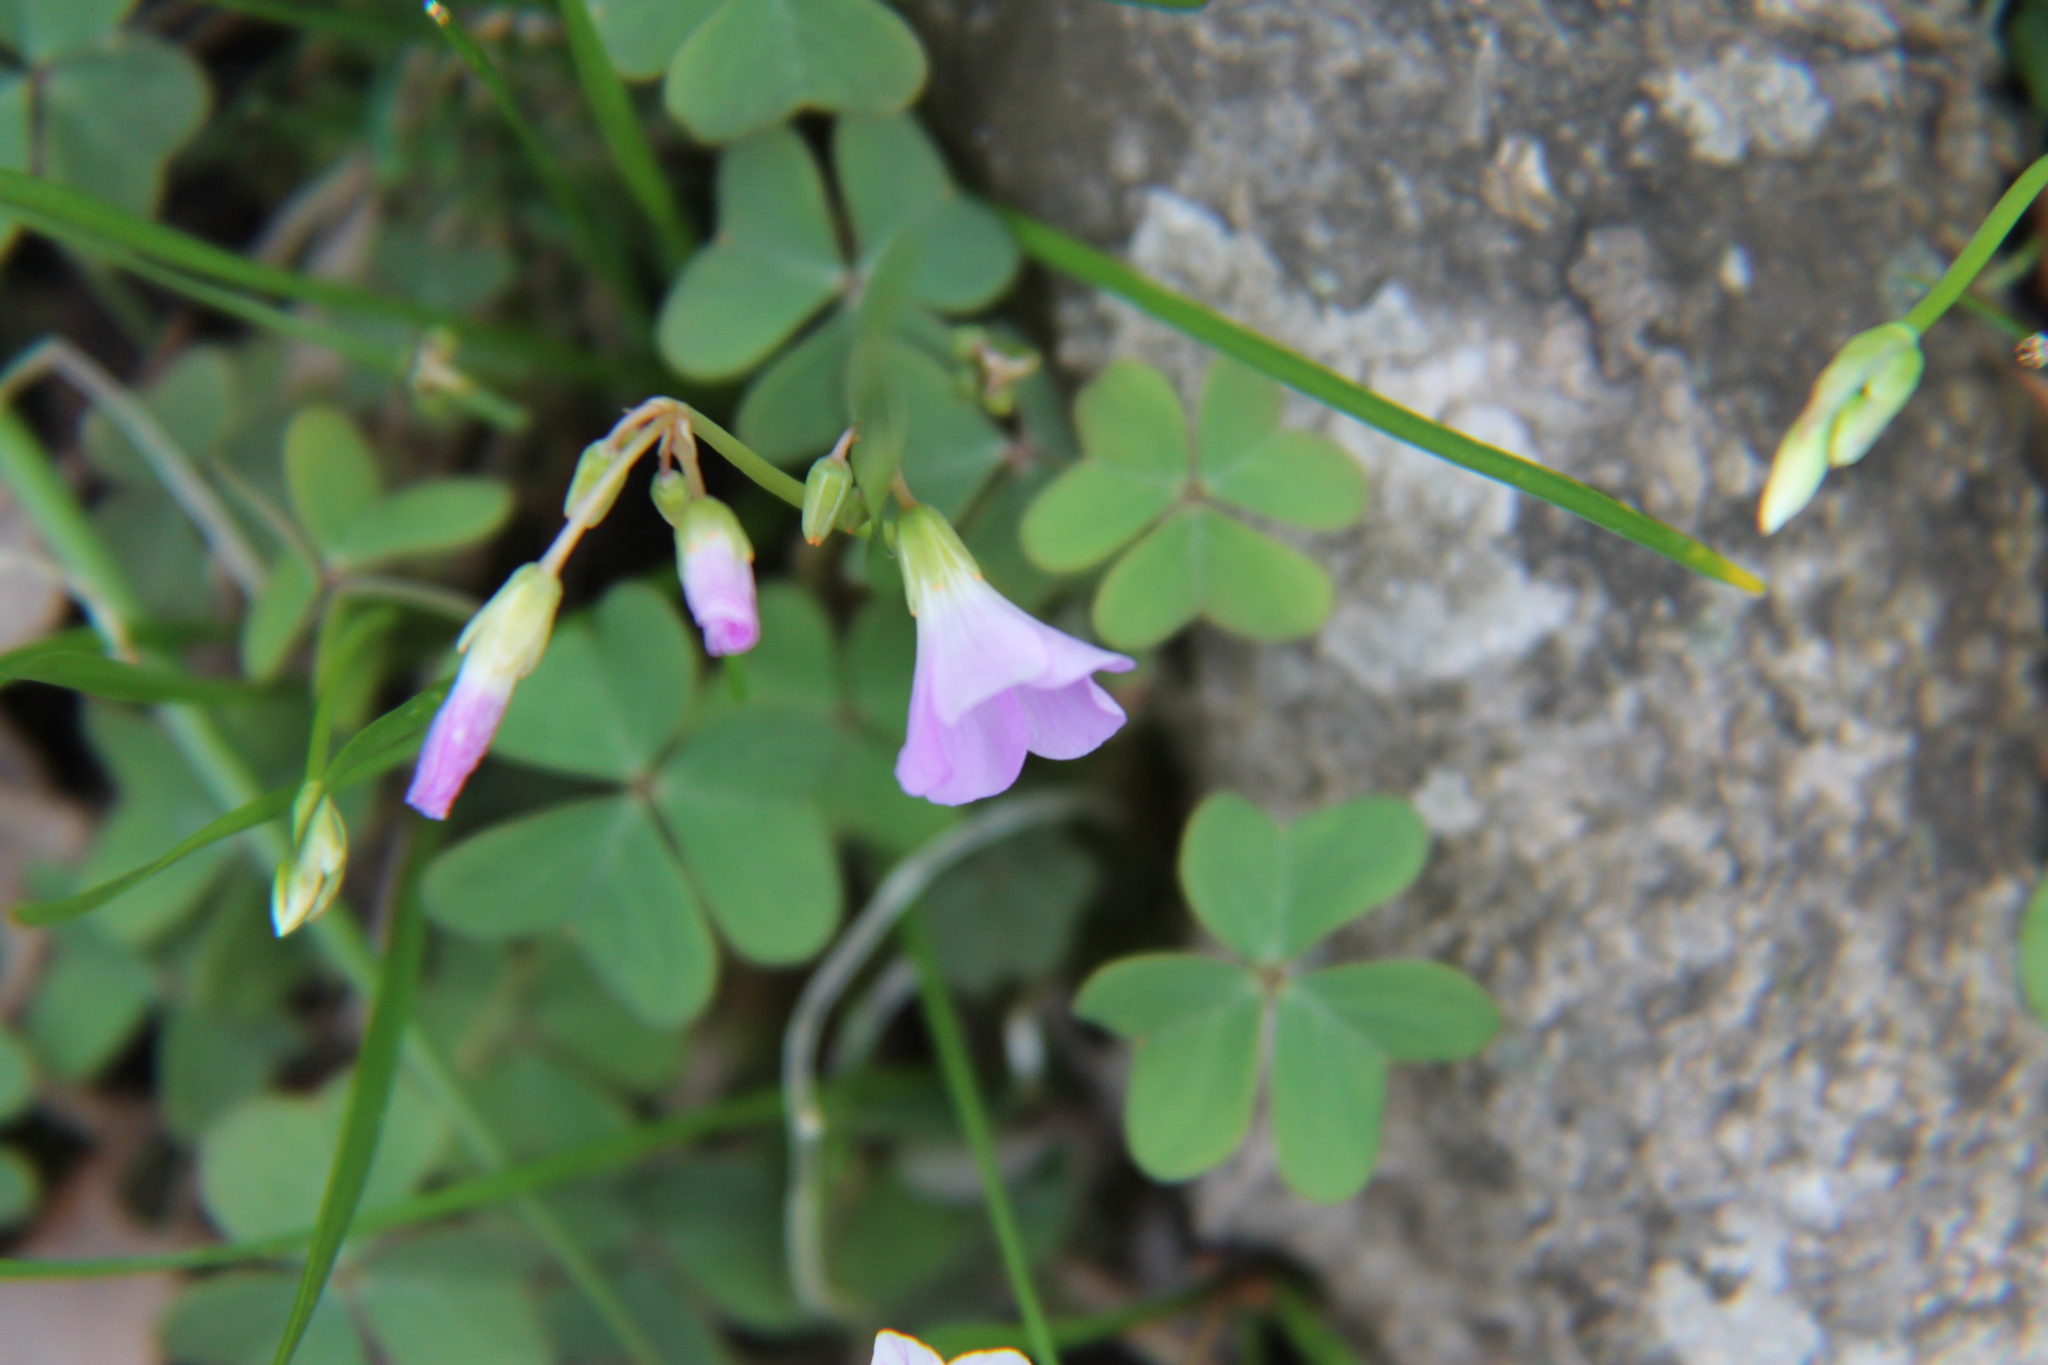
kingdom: Plantae
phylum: Tracheophyta
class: Magnoliopsida
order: Oxalidales
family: Oxalidaceae
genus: Oxalis
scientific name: Oxalis violacea
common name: Violet wood-sorrel
